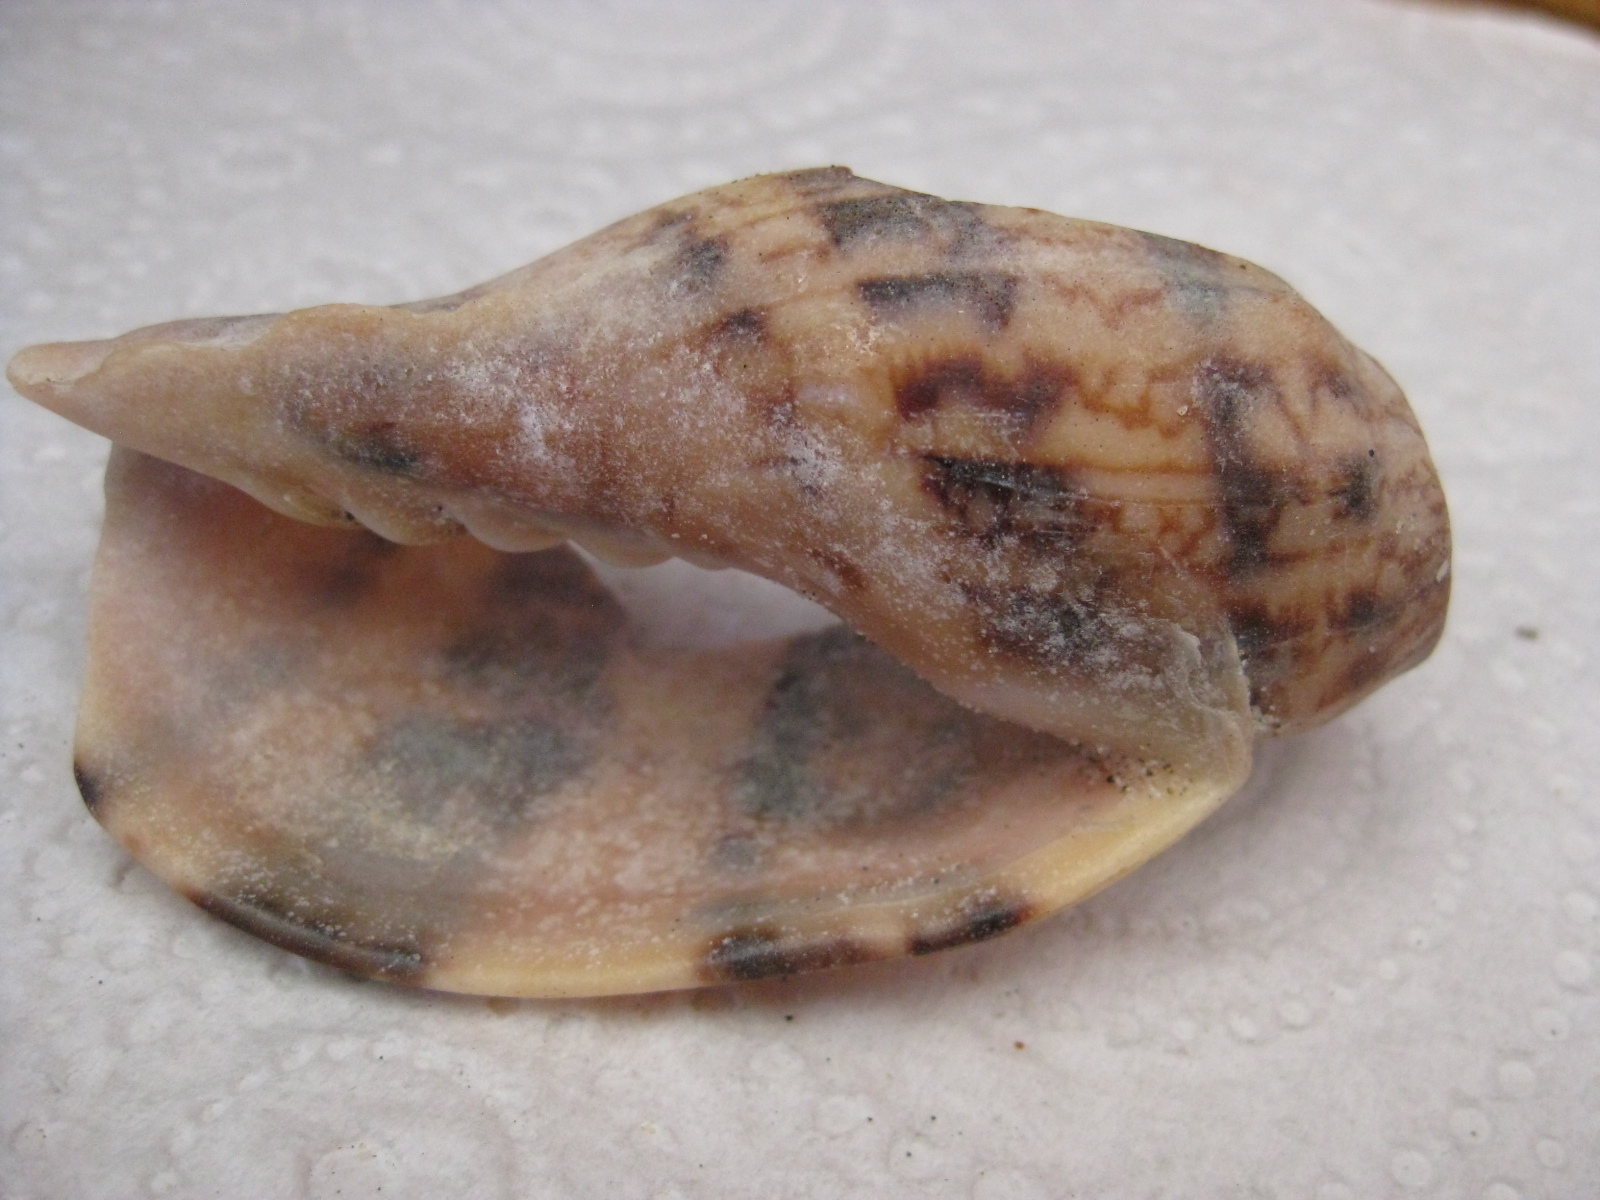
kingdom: Animalia
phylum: Mollusca
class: Gastropoda
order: Neogastropoda
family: Volutidae
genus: Alcithoe
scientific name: Alcithoe arabica
